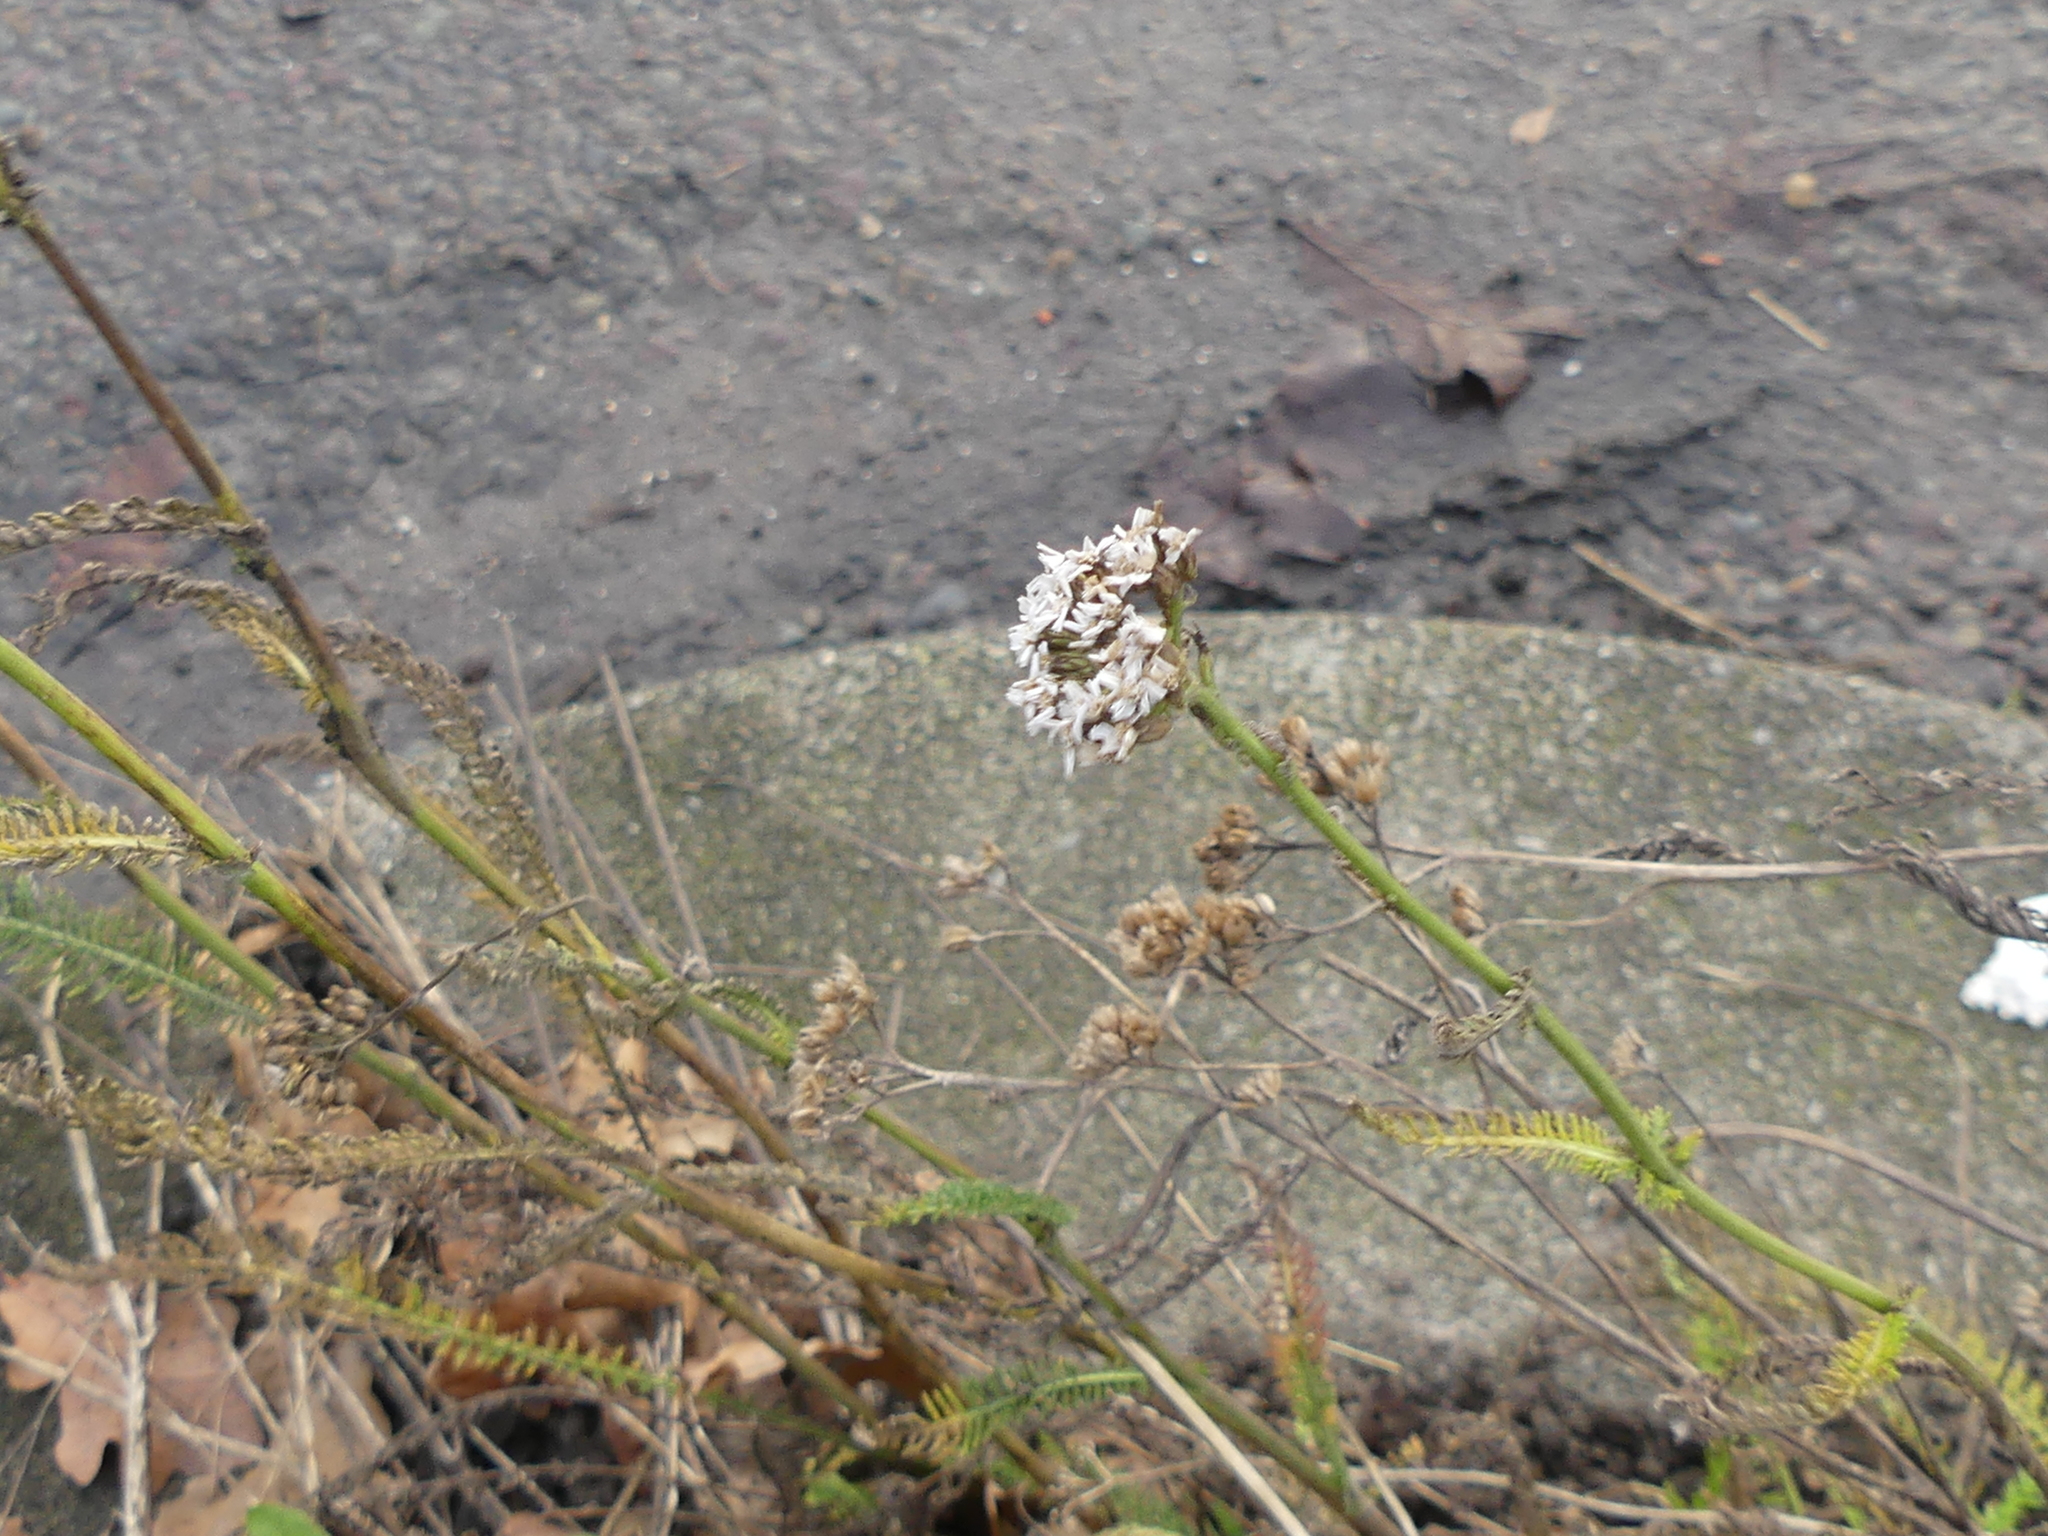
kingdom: Plantae
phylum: Tracheophyta
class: Magnoliopsida
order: Asterales
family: Asteraceae
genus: Achillea
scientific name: Achillea millefolium
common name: Yarrow
